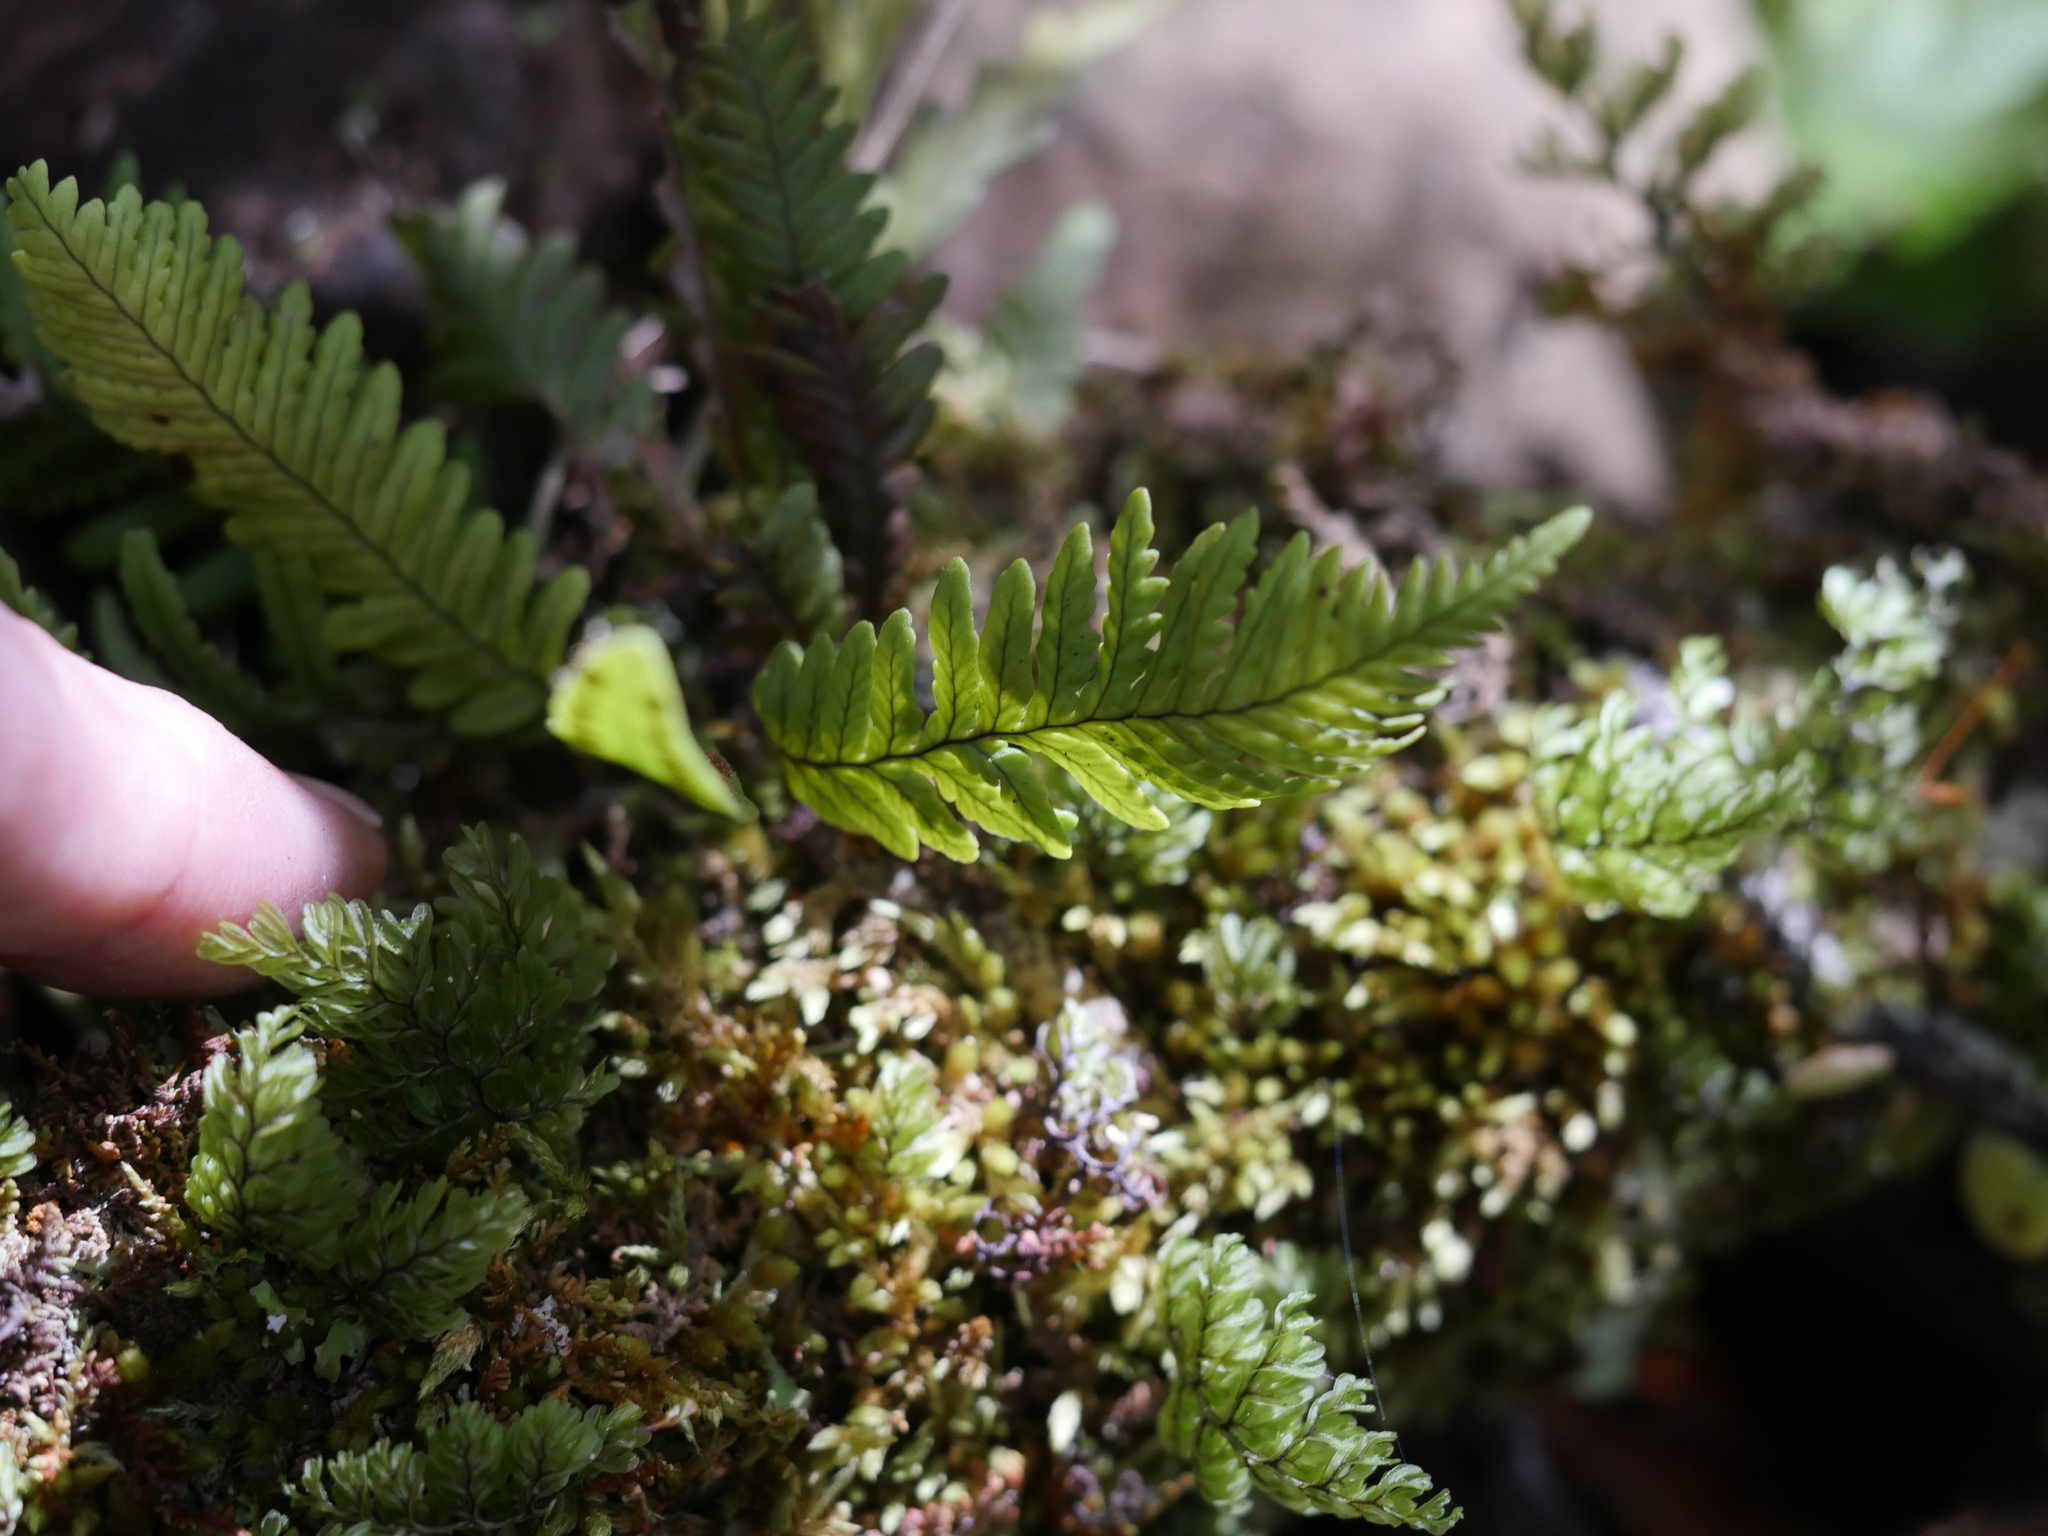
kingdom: Plantae
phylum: Tracheophyta
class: Polypodiopsida
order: Polypodiales
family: Polypodiaceae
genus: Notogrammitis
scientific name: Notogrammitis heterophylla
